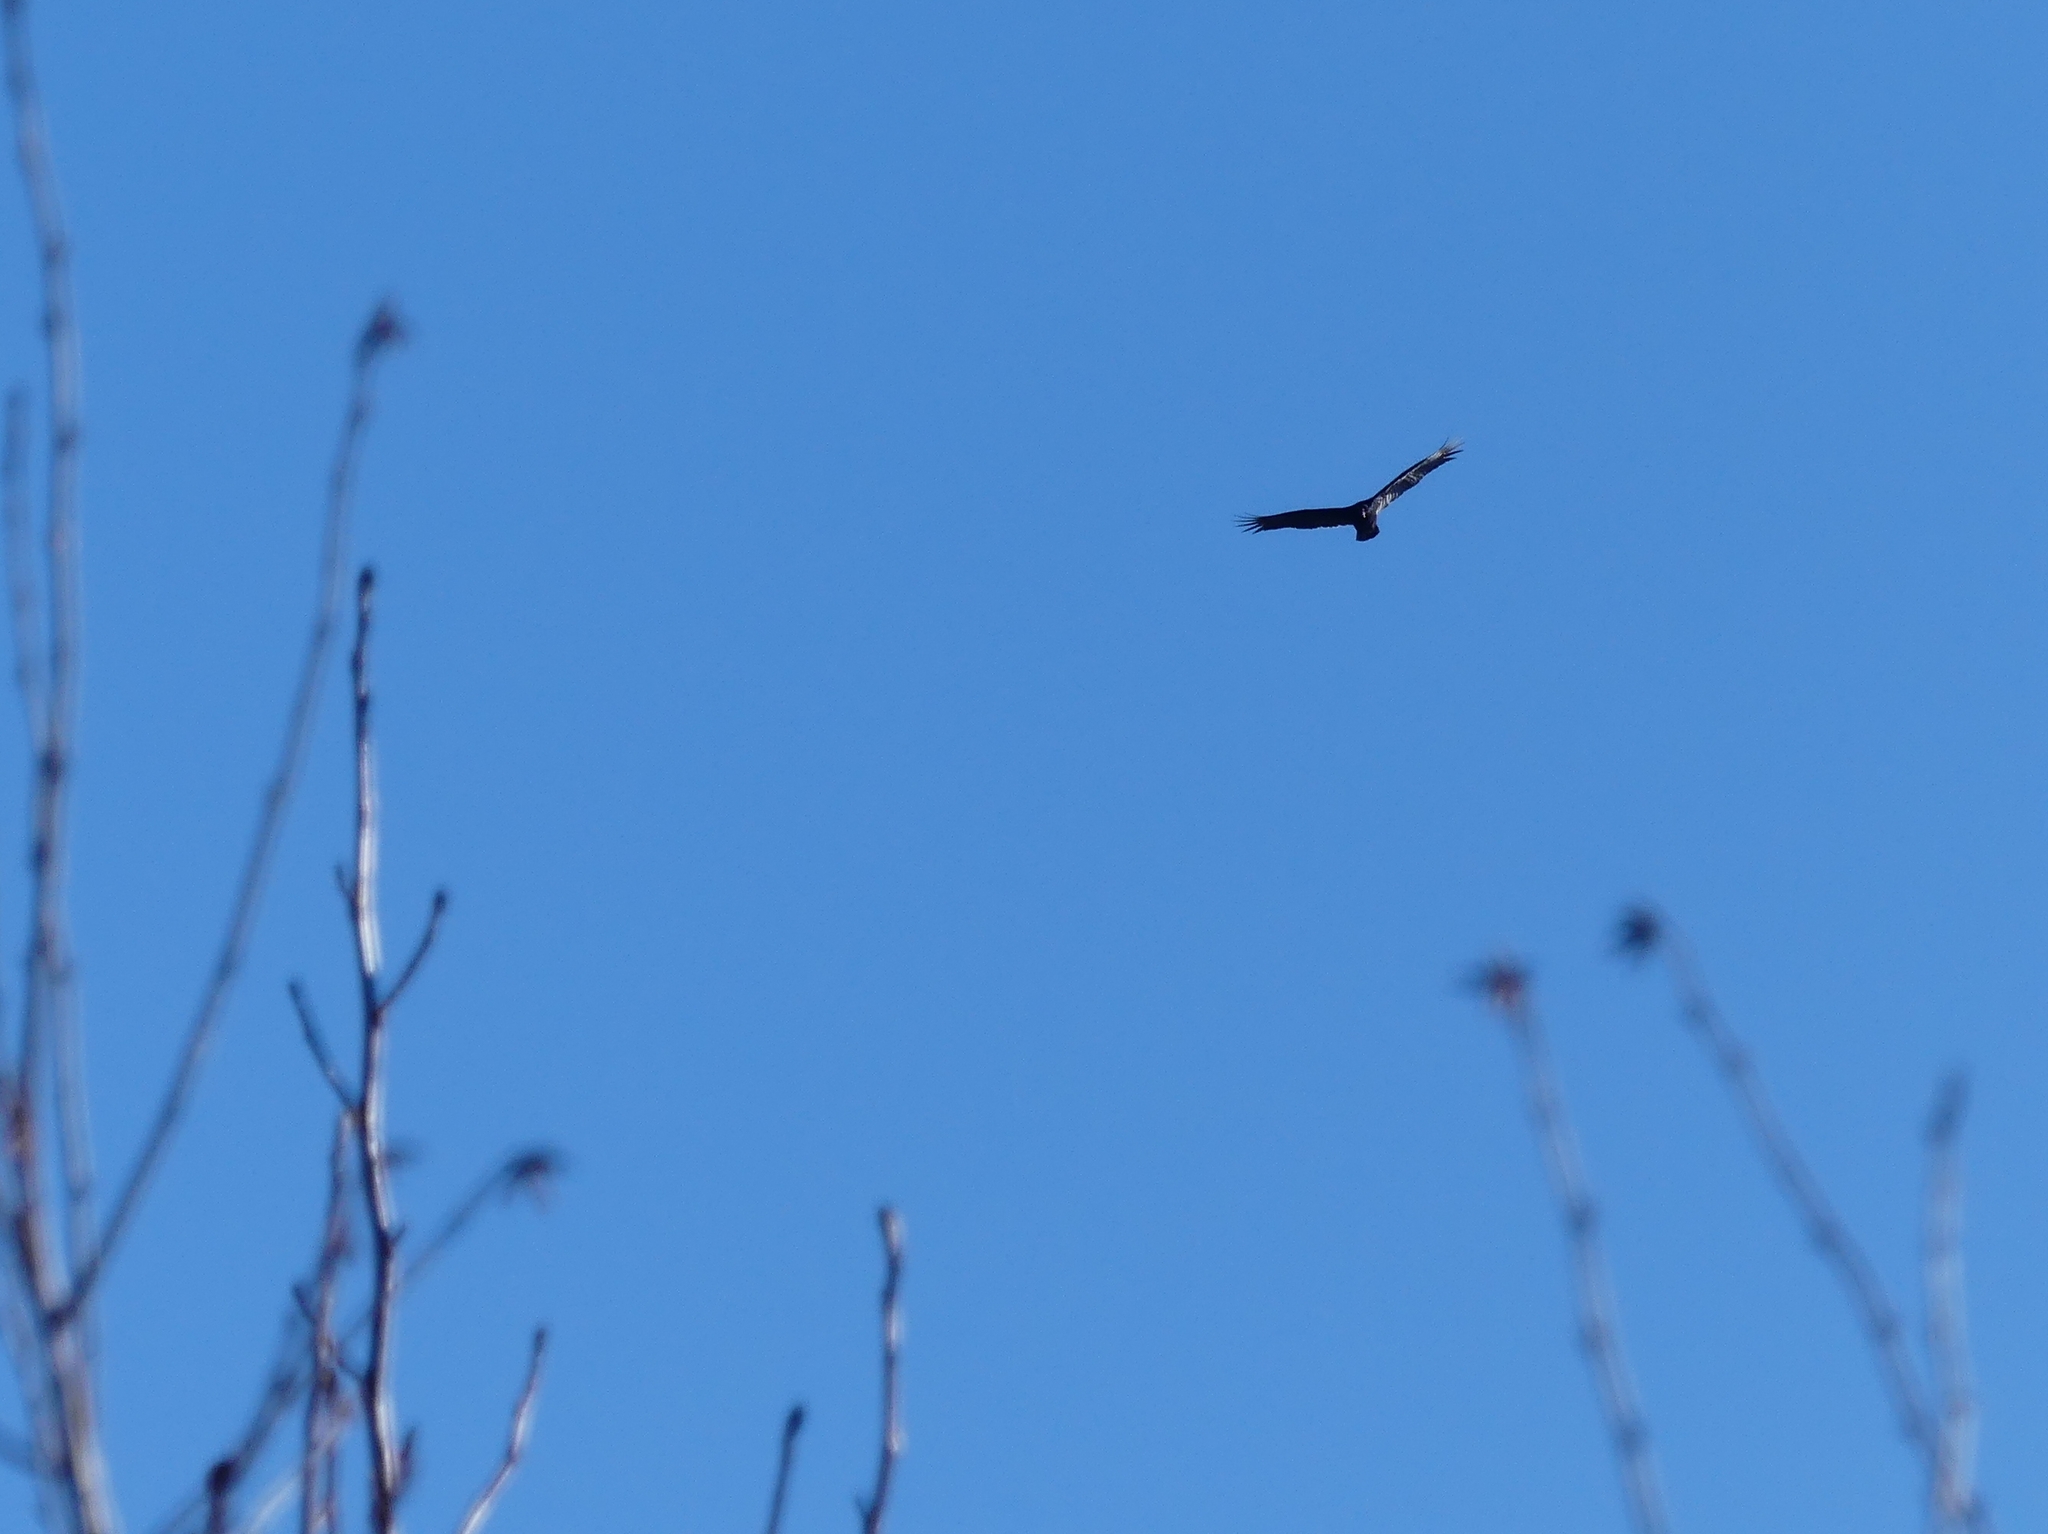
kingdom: Animalia
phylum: Chordata
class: Aves
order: Accipitriformes
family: Cathartidae
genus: Cathartes
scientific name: Cathartes aura
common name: Turkey vulture
